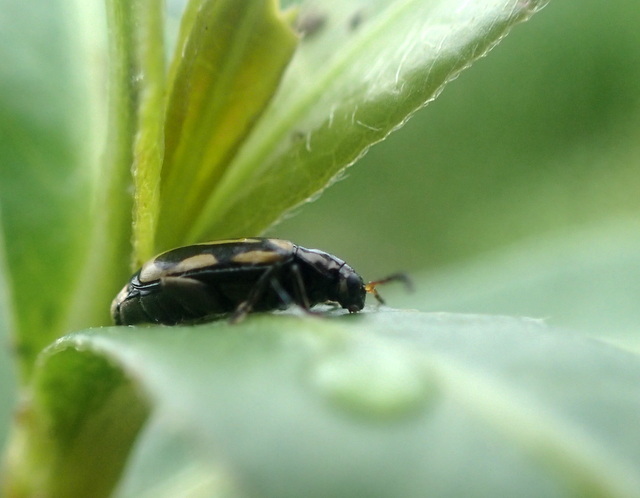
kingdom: Animalia
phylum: Arthropoda
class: Insecta
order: Coleoptera
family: Chrysomelidae
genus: Agasicles
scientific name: Agasicles hygrophila
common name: Alligatorweed flea beetle
